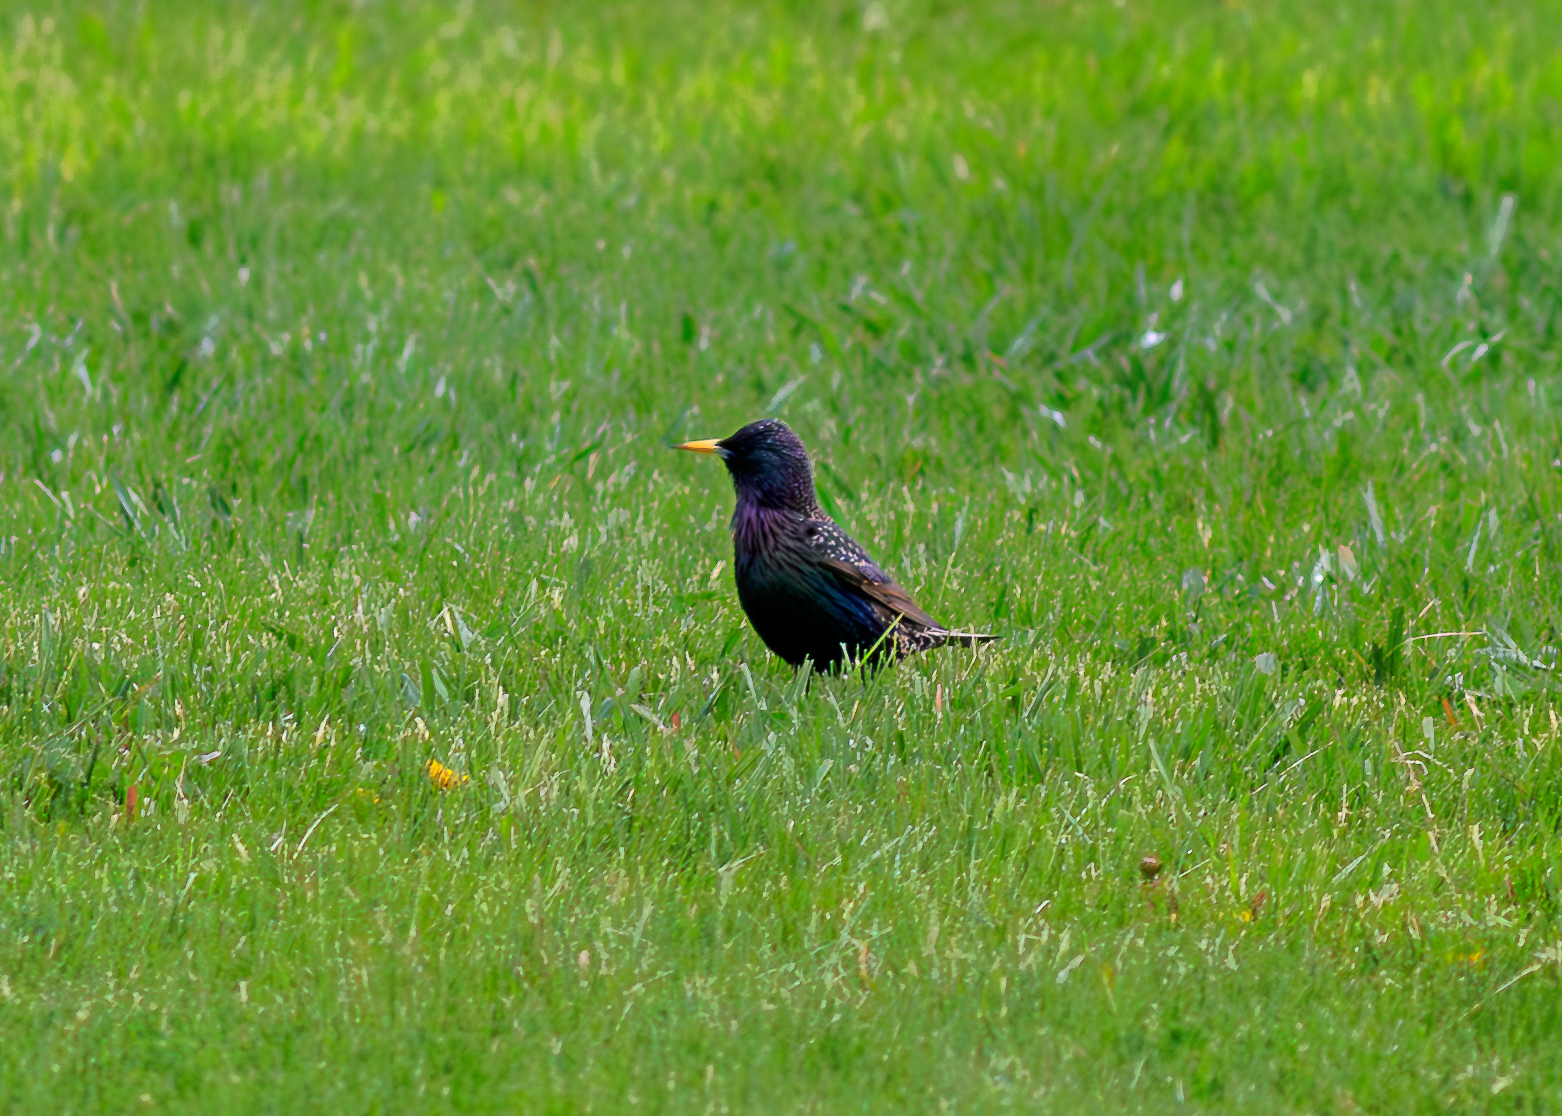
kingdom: Animalia
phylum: Chordata
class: Aves
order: Passeriformes
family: Sturnidae
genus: Sturnus
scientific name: Sturnus vulgaris
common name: Common starling
